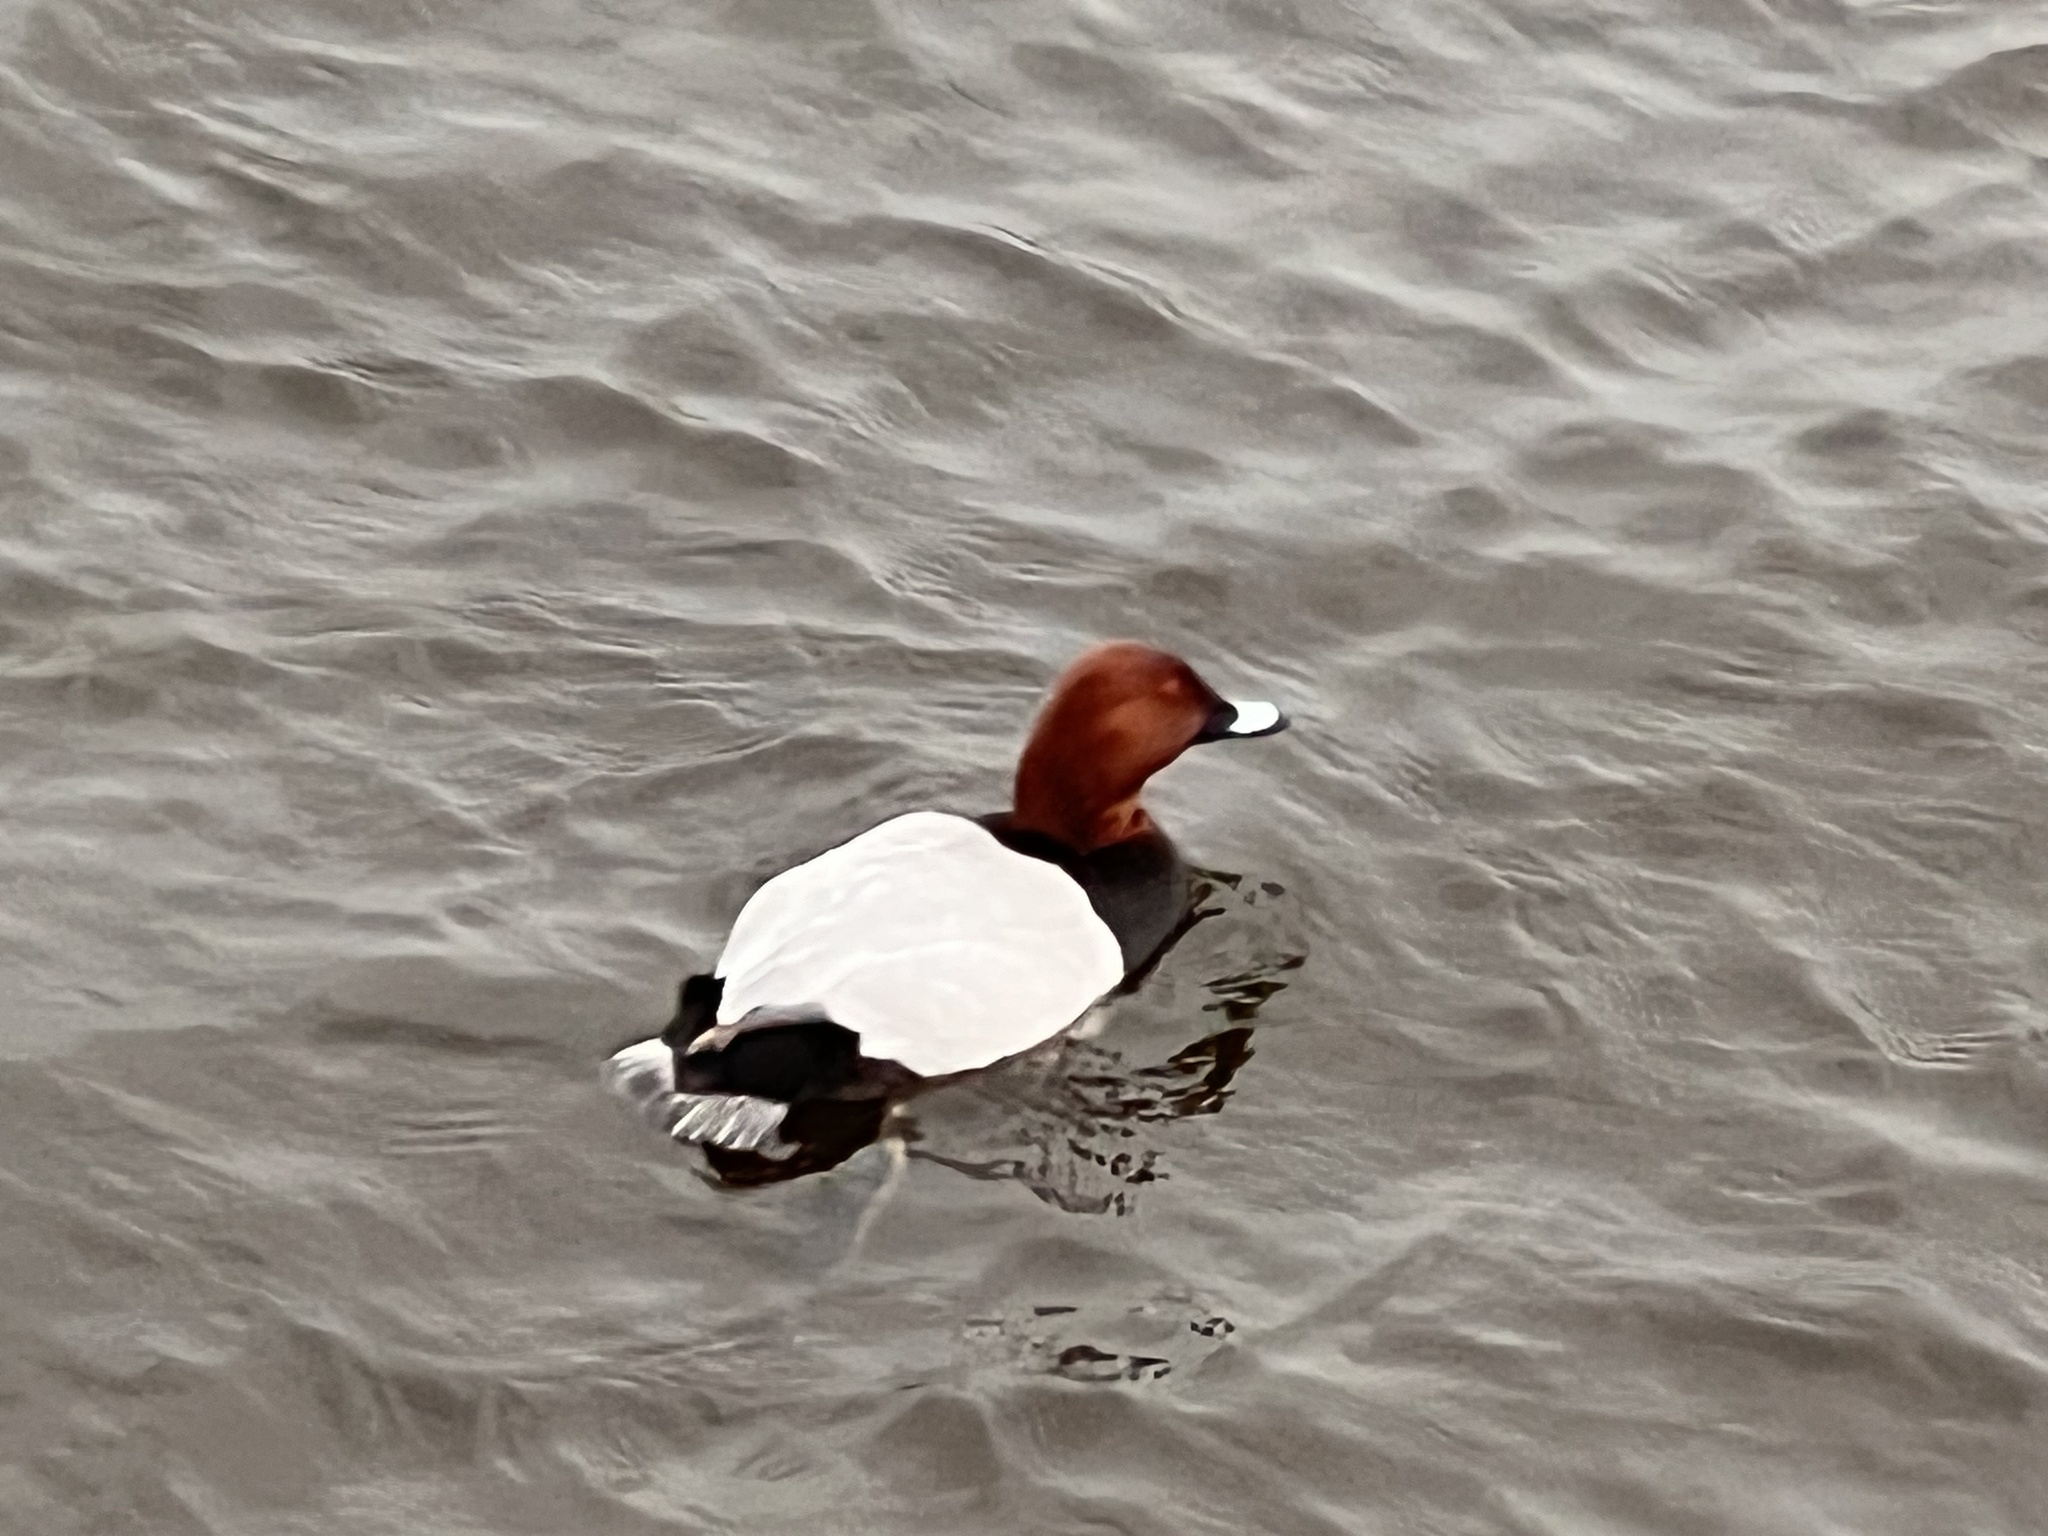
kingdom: Animalia
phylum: Chordata
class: Aves
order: Anseriformes
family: Anatidae
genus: Aythya
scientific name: Aythya ferina
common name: Common pochard
